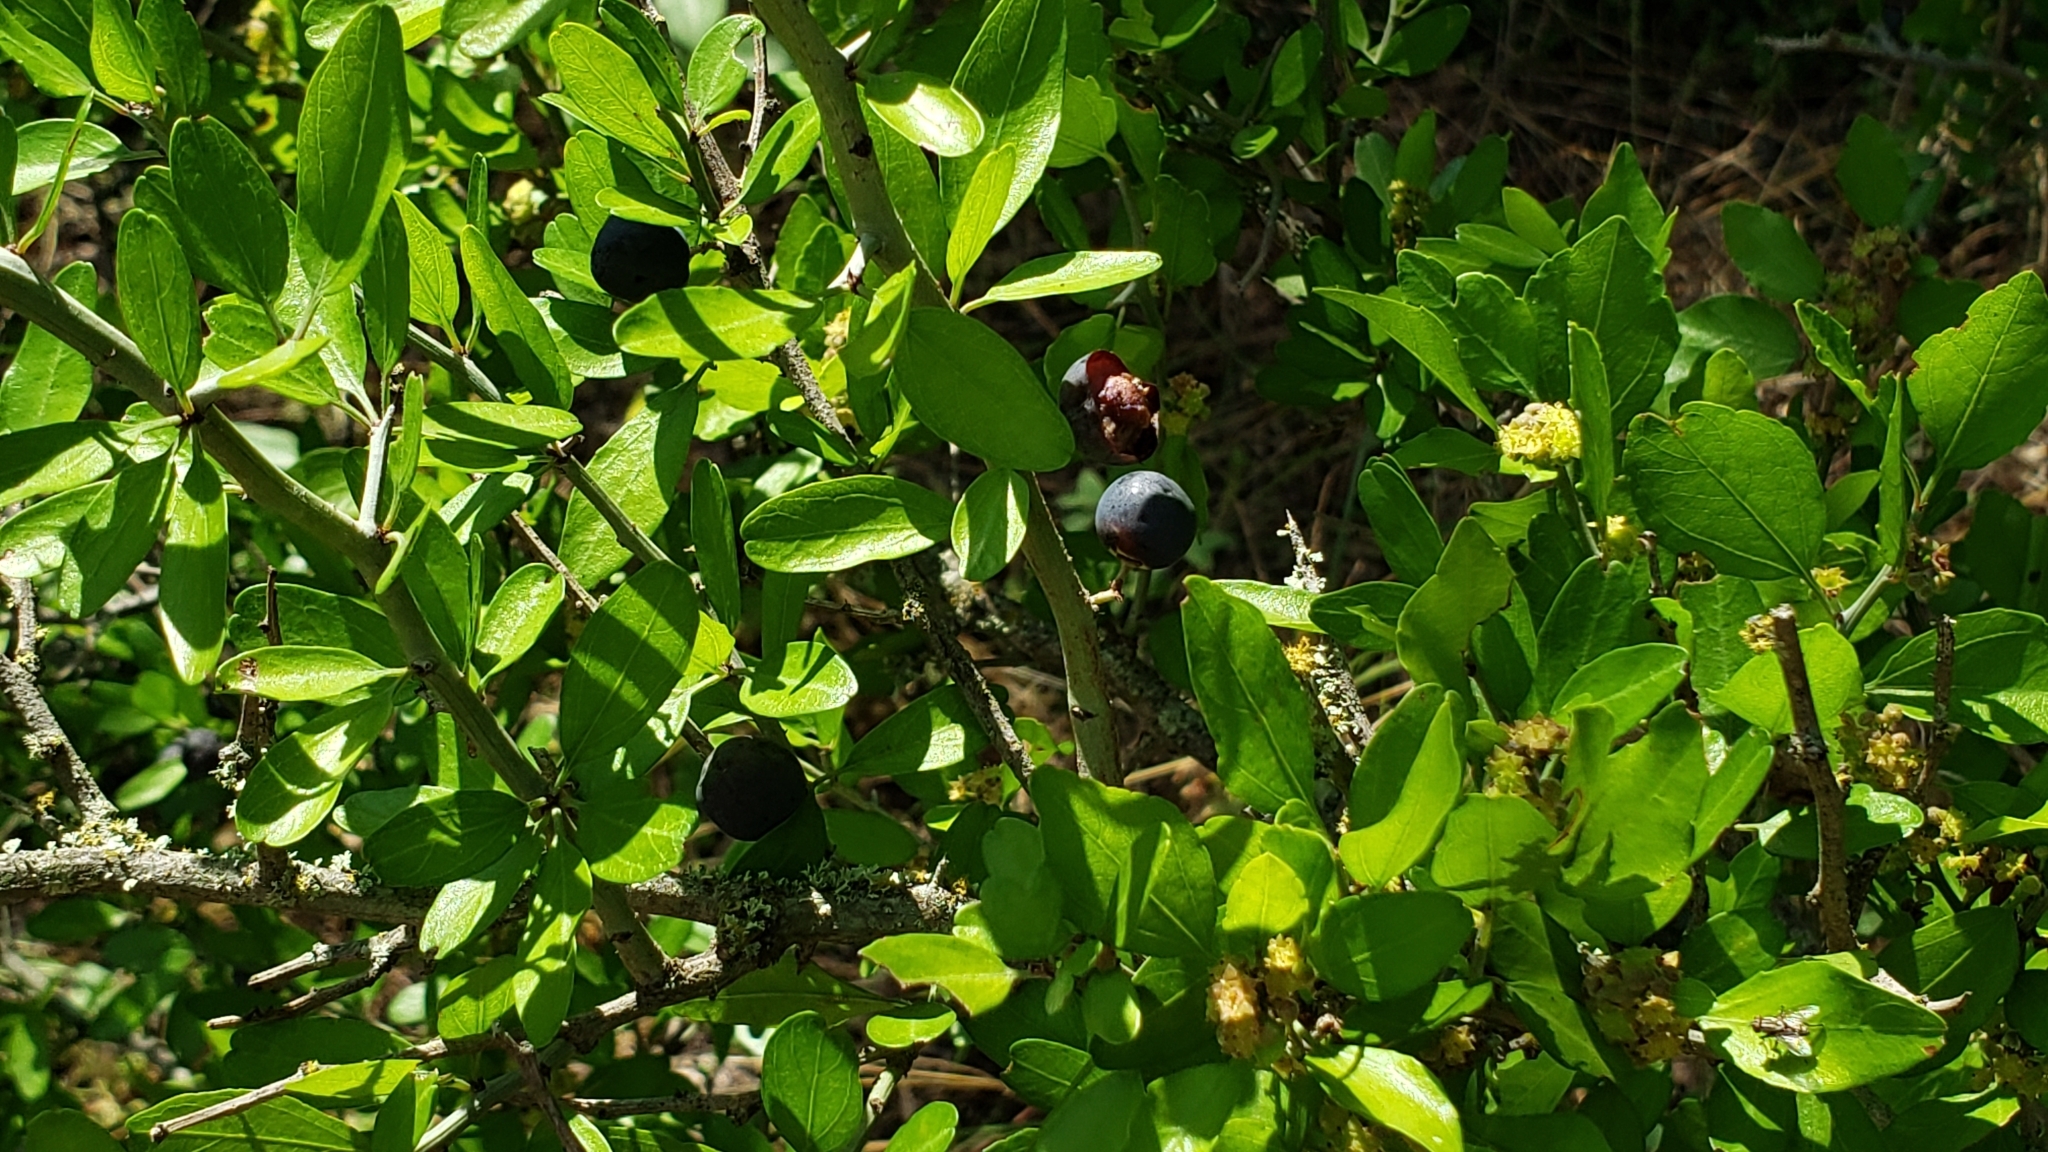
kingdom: Plantae
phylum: Tracheophyta
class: Magnoliopsida
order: Rosales
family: Rhamnaceae
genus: Sarcomphalus
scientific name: Sarcomphalus obtusifolius
